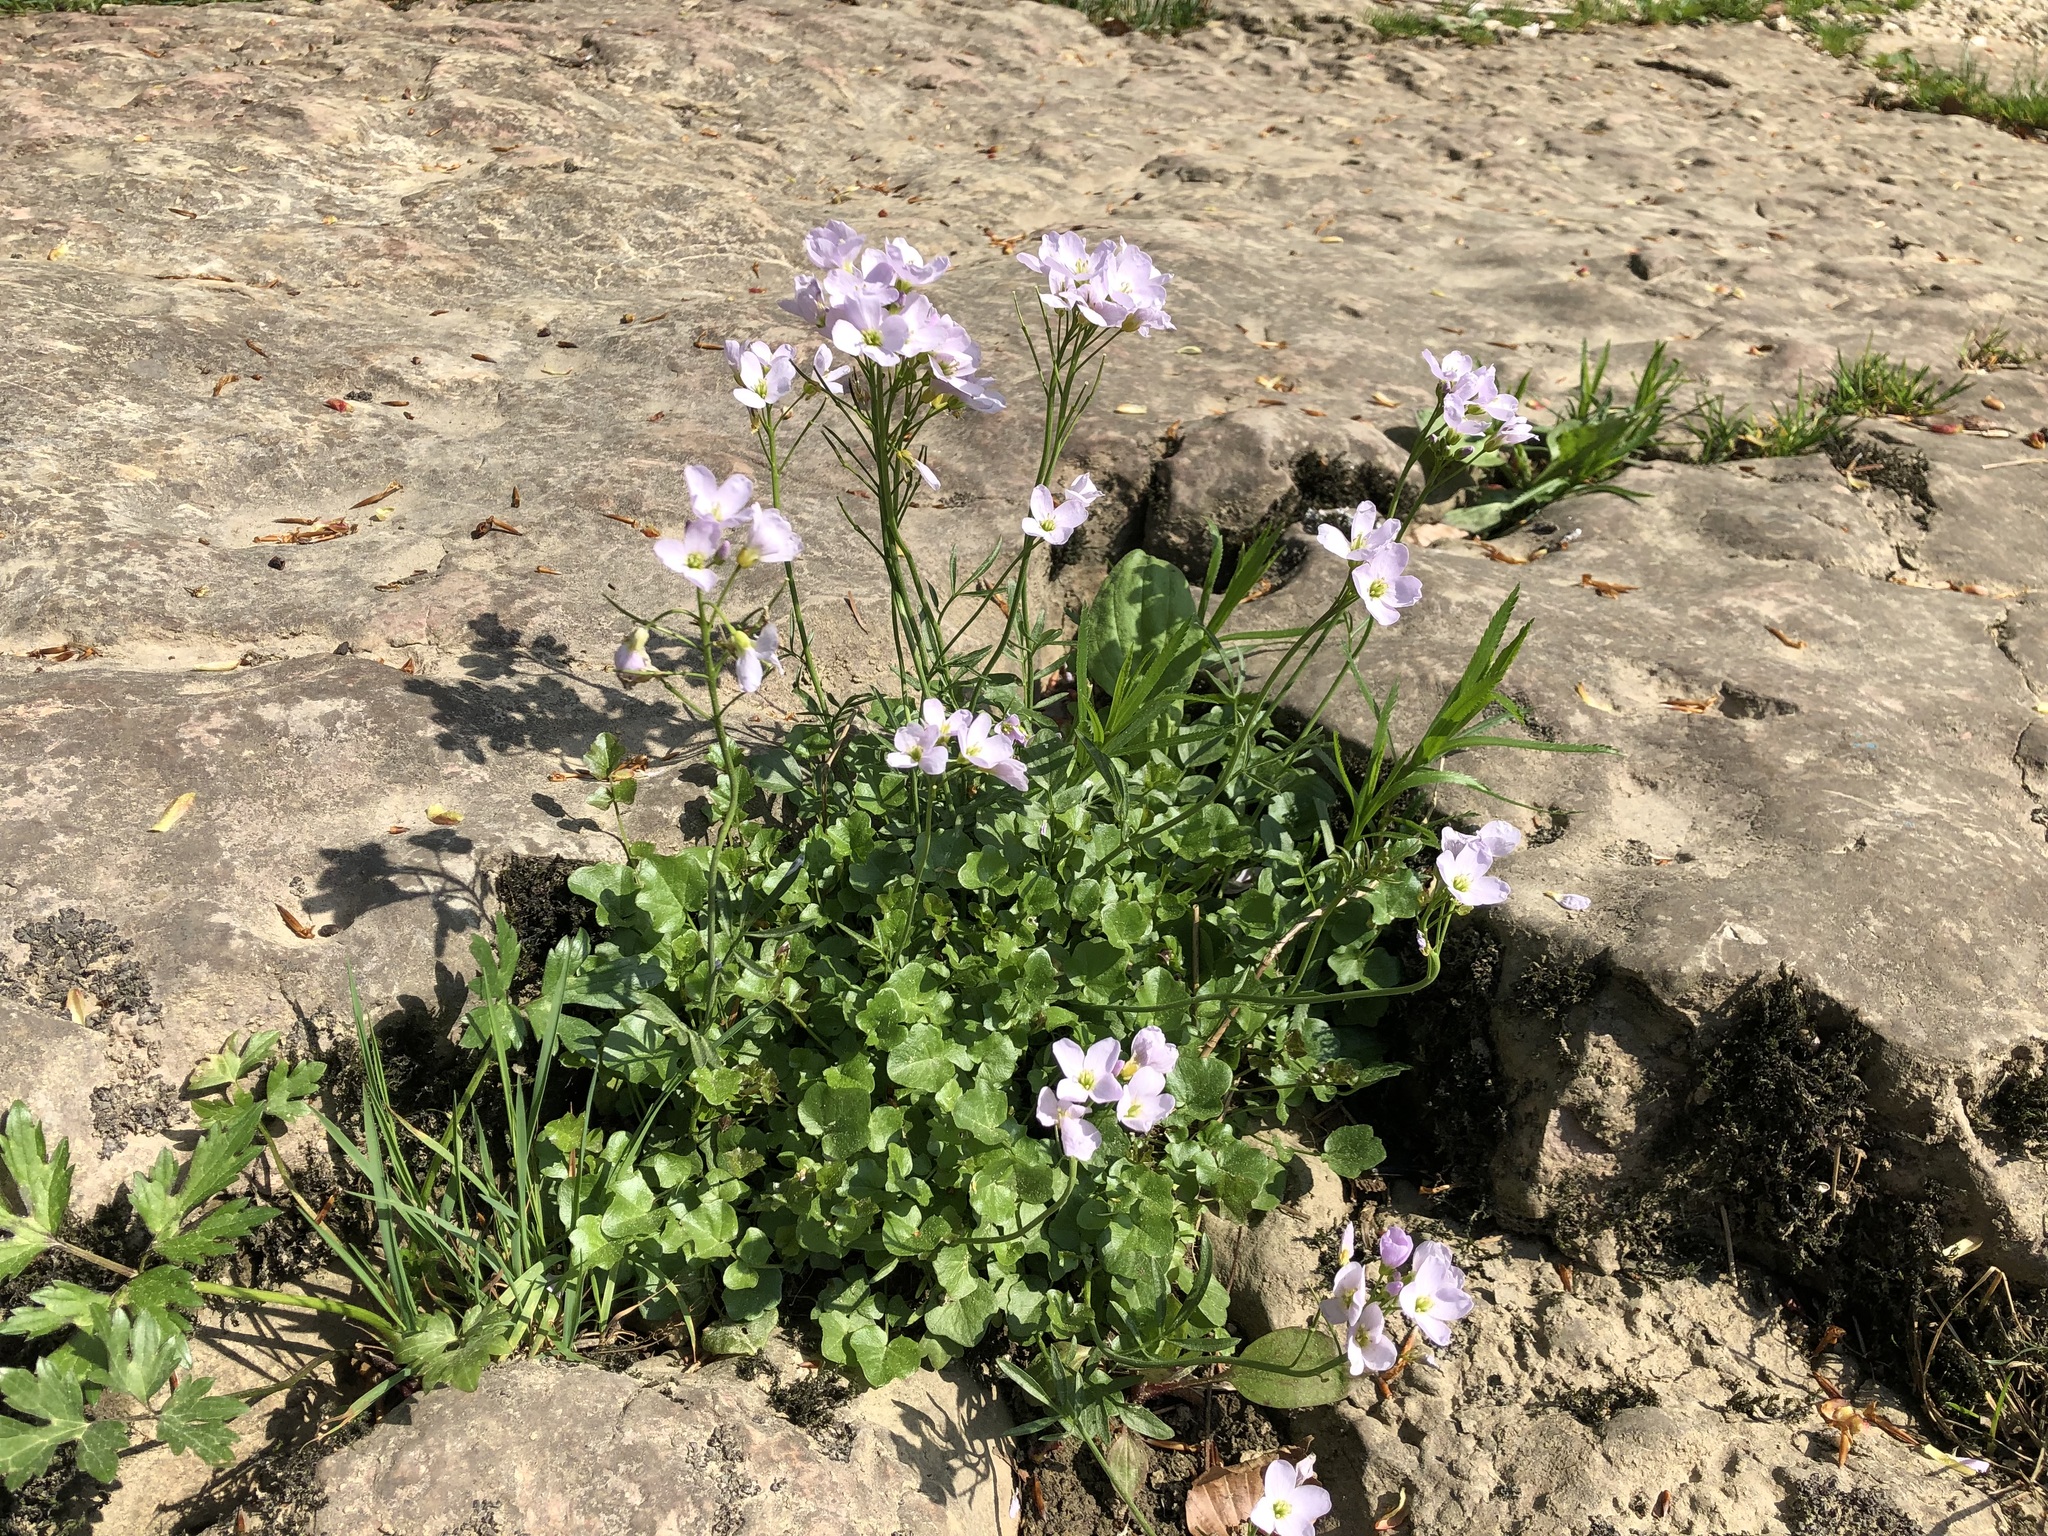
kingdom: Plantae
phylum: Tracheophyta
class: Magnoliopsida
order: Brassicales
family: Brassicaceae
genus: Cardamine
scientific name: Cardamine pratensis
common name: Cuckoo flower
